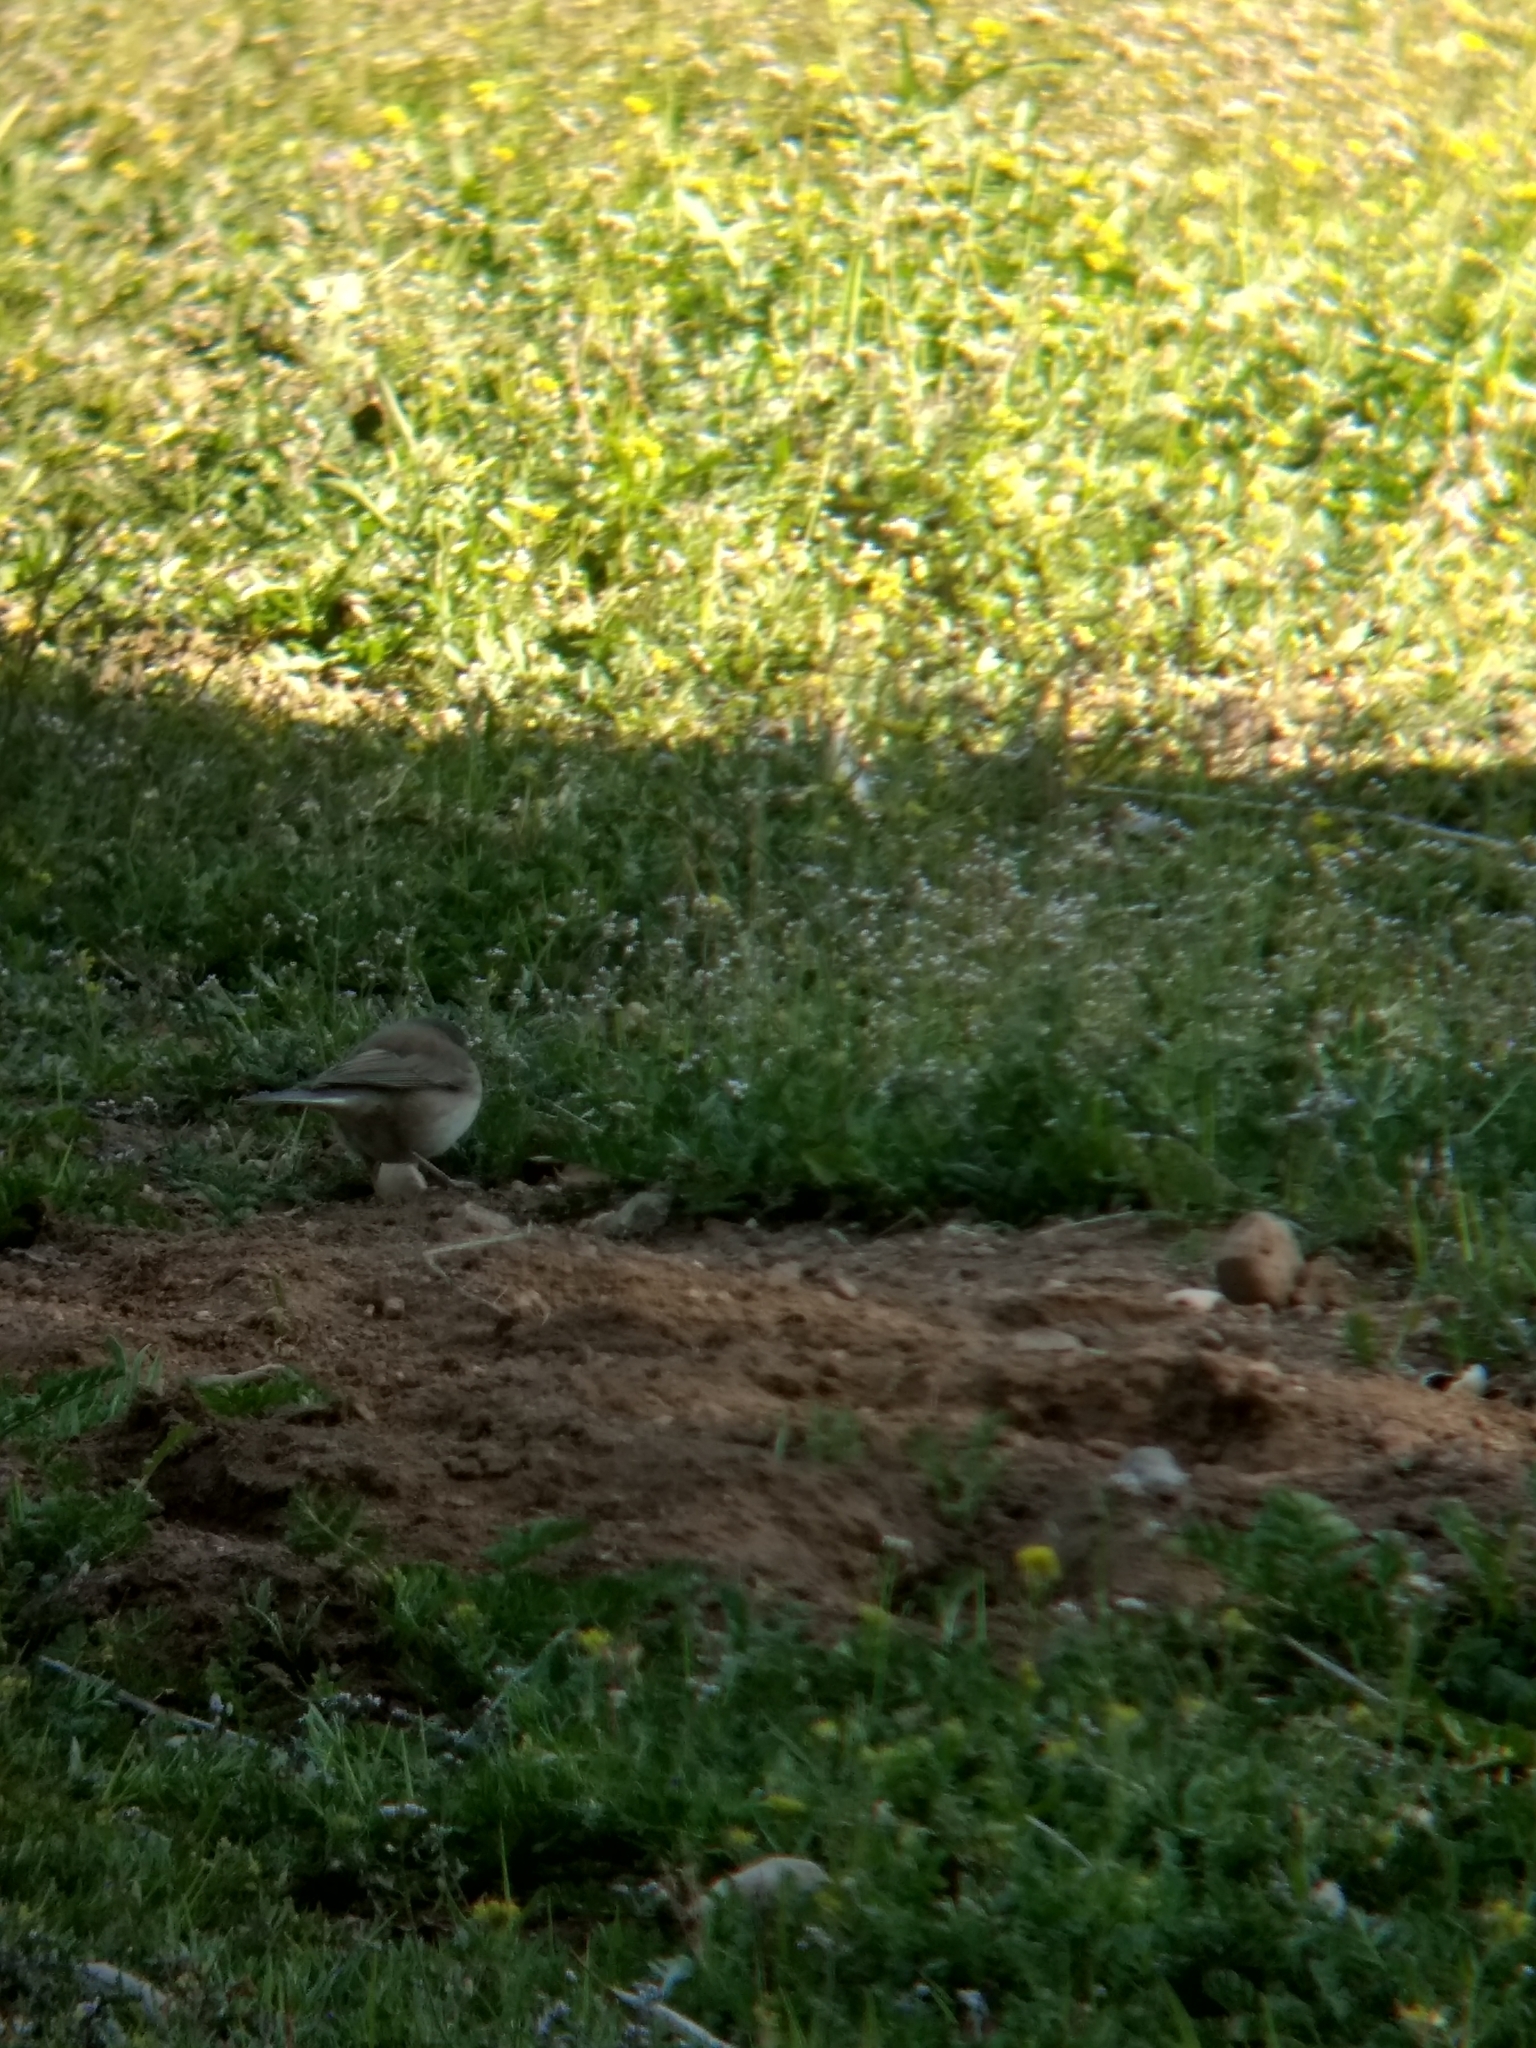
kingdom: Animalia
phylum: Chordata
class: Aves
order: Passeriformes
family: Passerellidae
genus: Junco
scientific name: Junco hyemalis
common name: Dark-eyed junco
